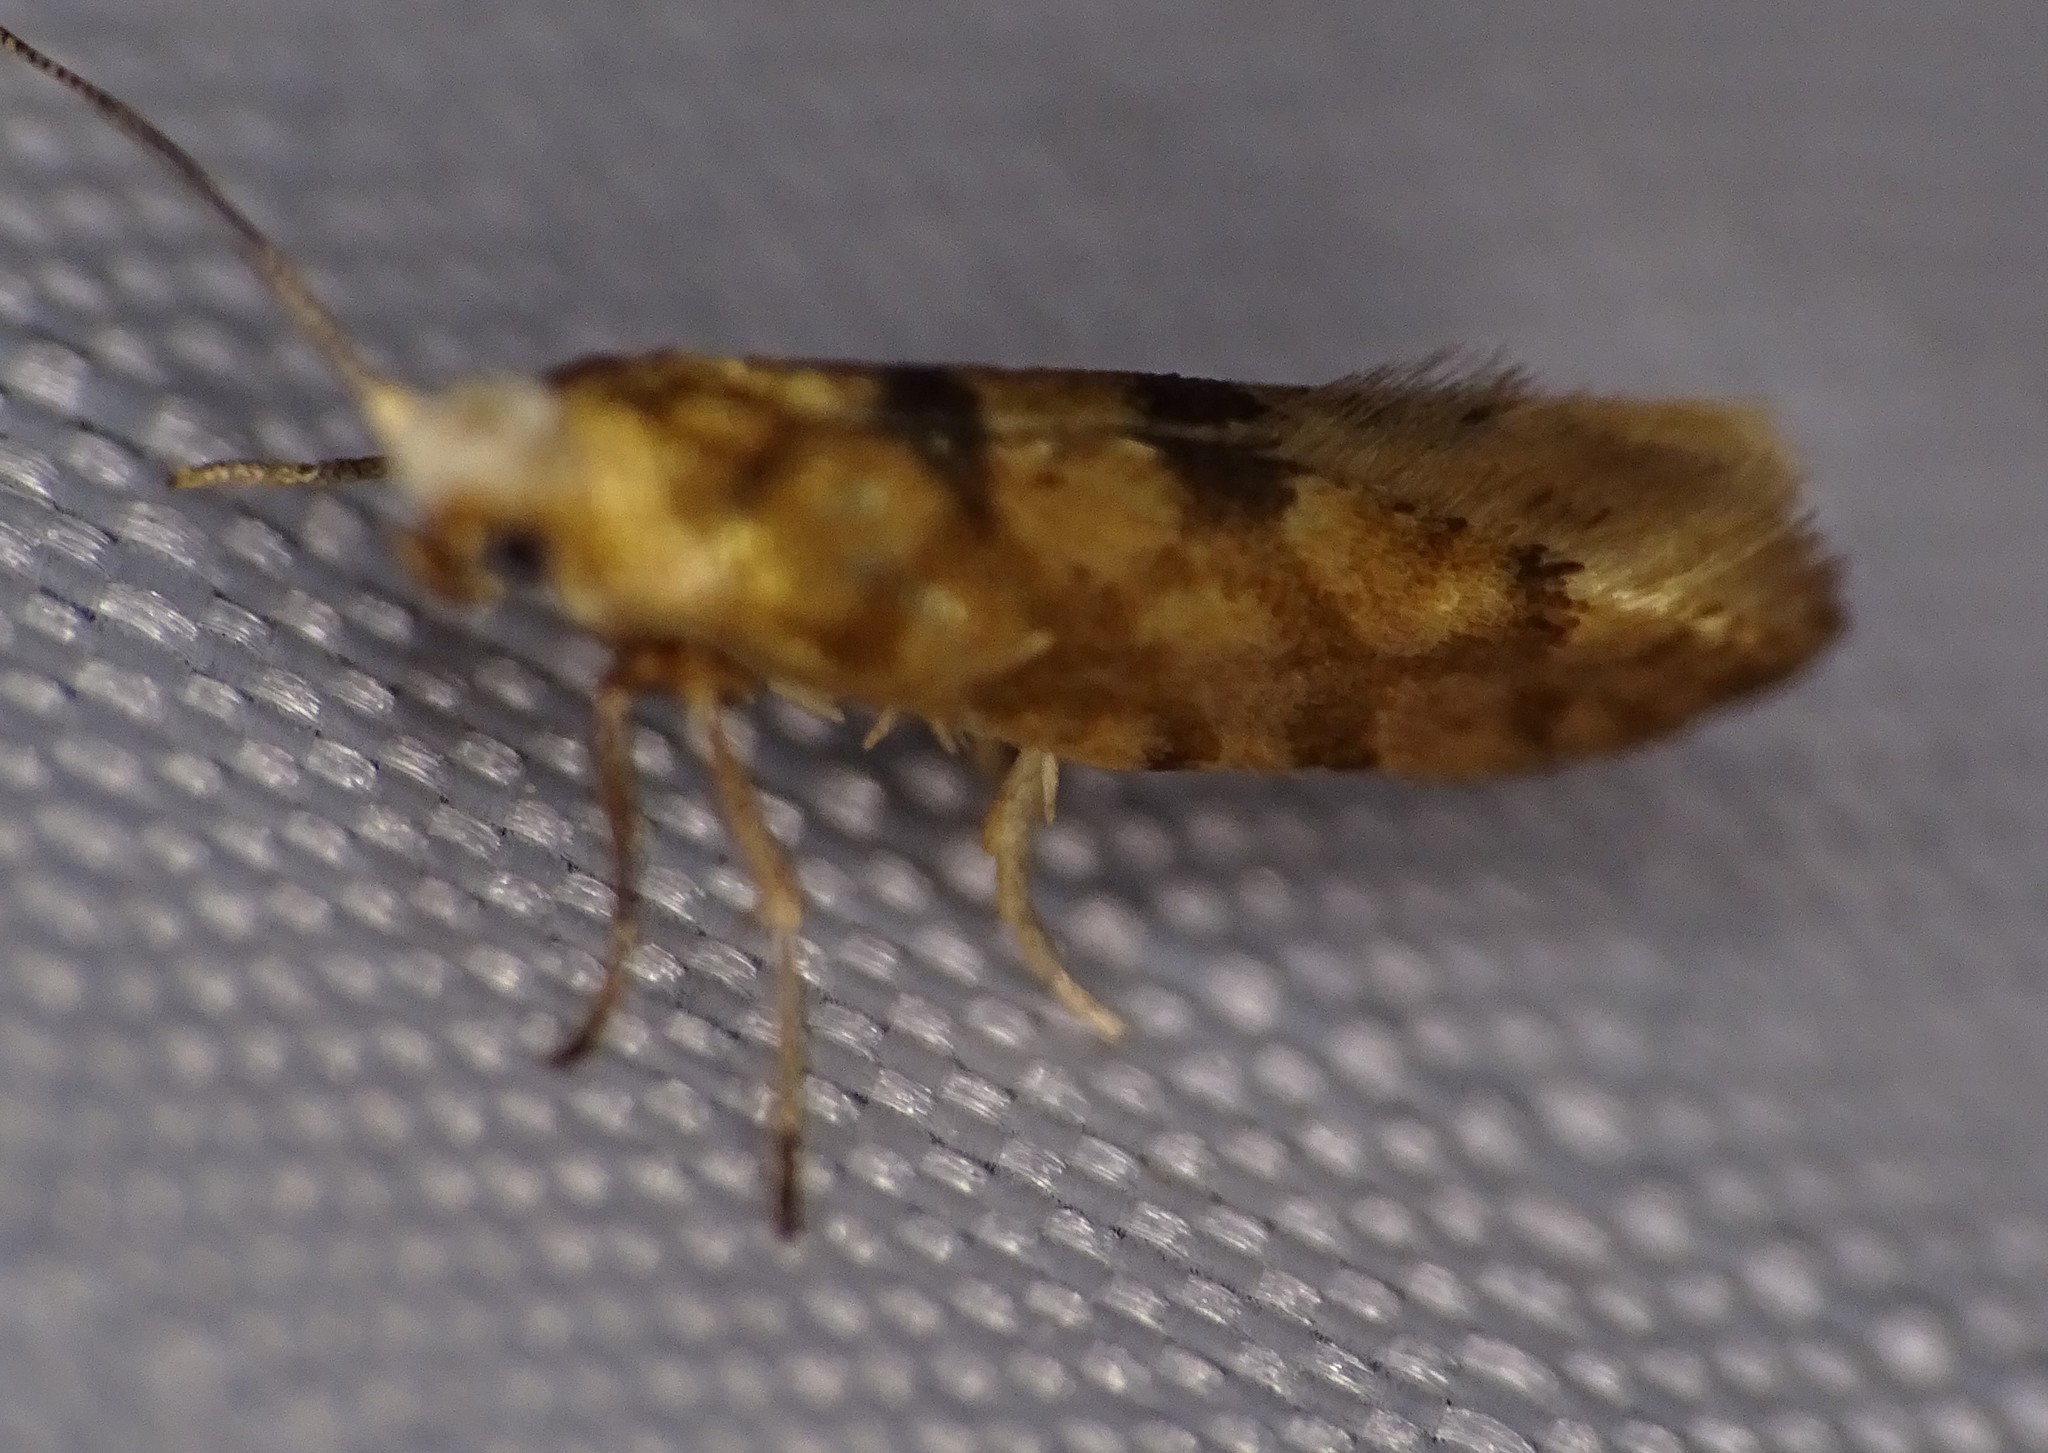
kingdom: Animalia
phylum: Arthropoda
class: Insecta
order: Lepidoptera
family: Argyresthiidae
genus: Argyresthia
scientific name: Argyresthia alternatella
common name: Juniper seed moth
